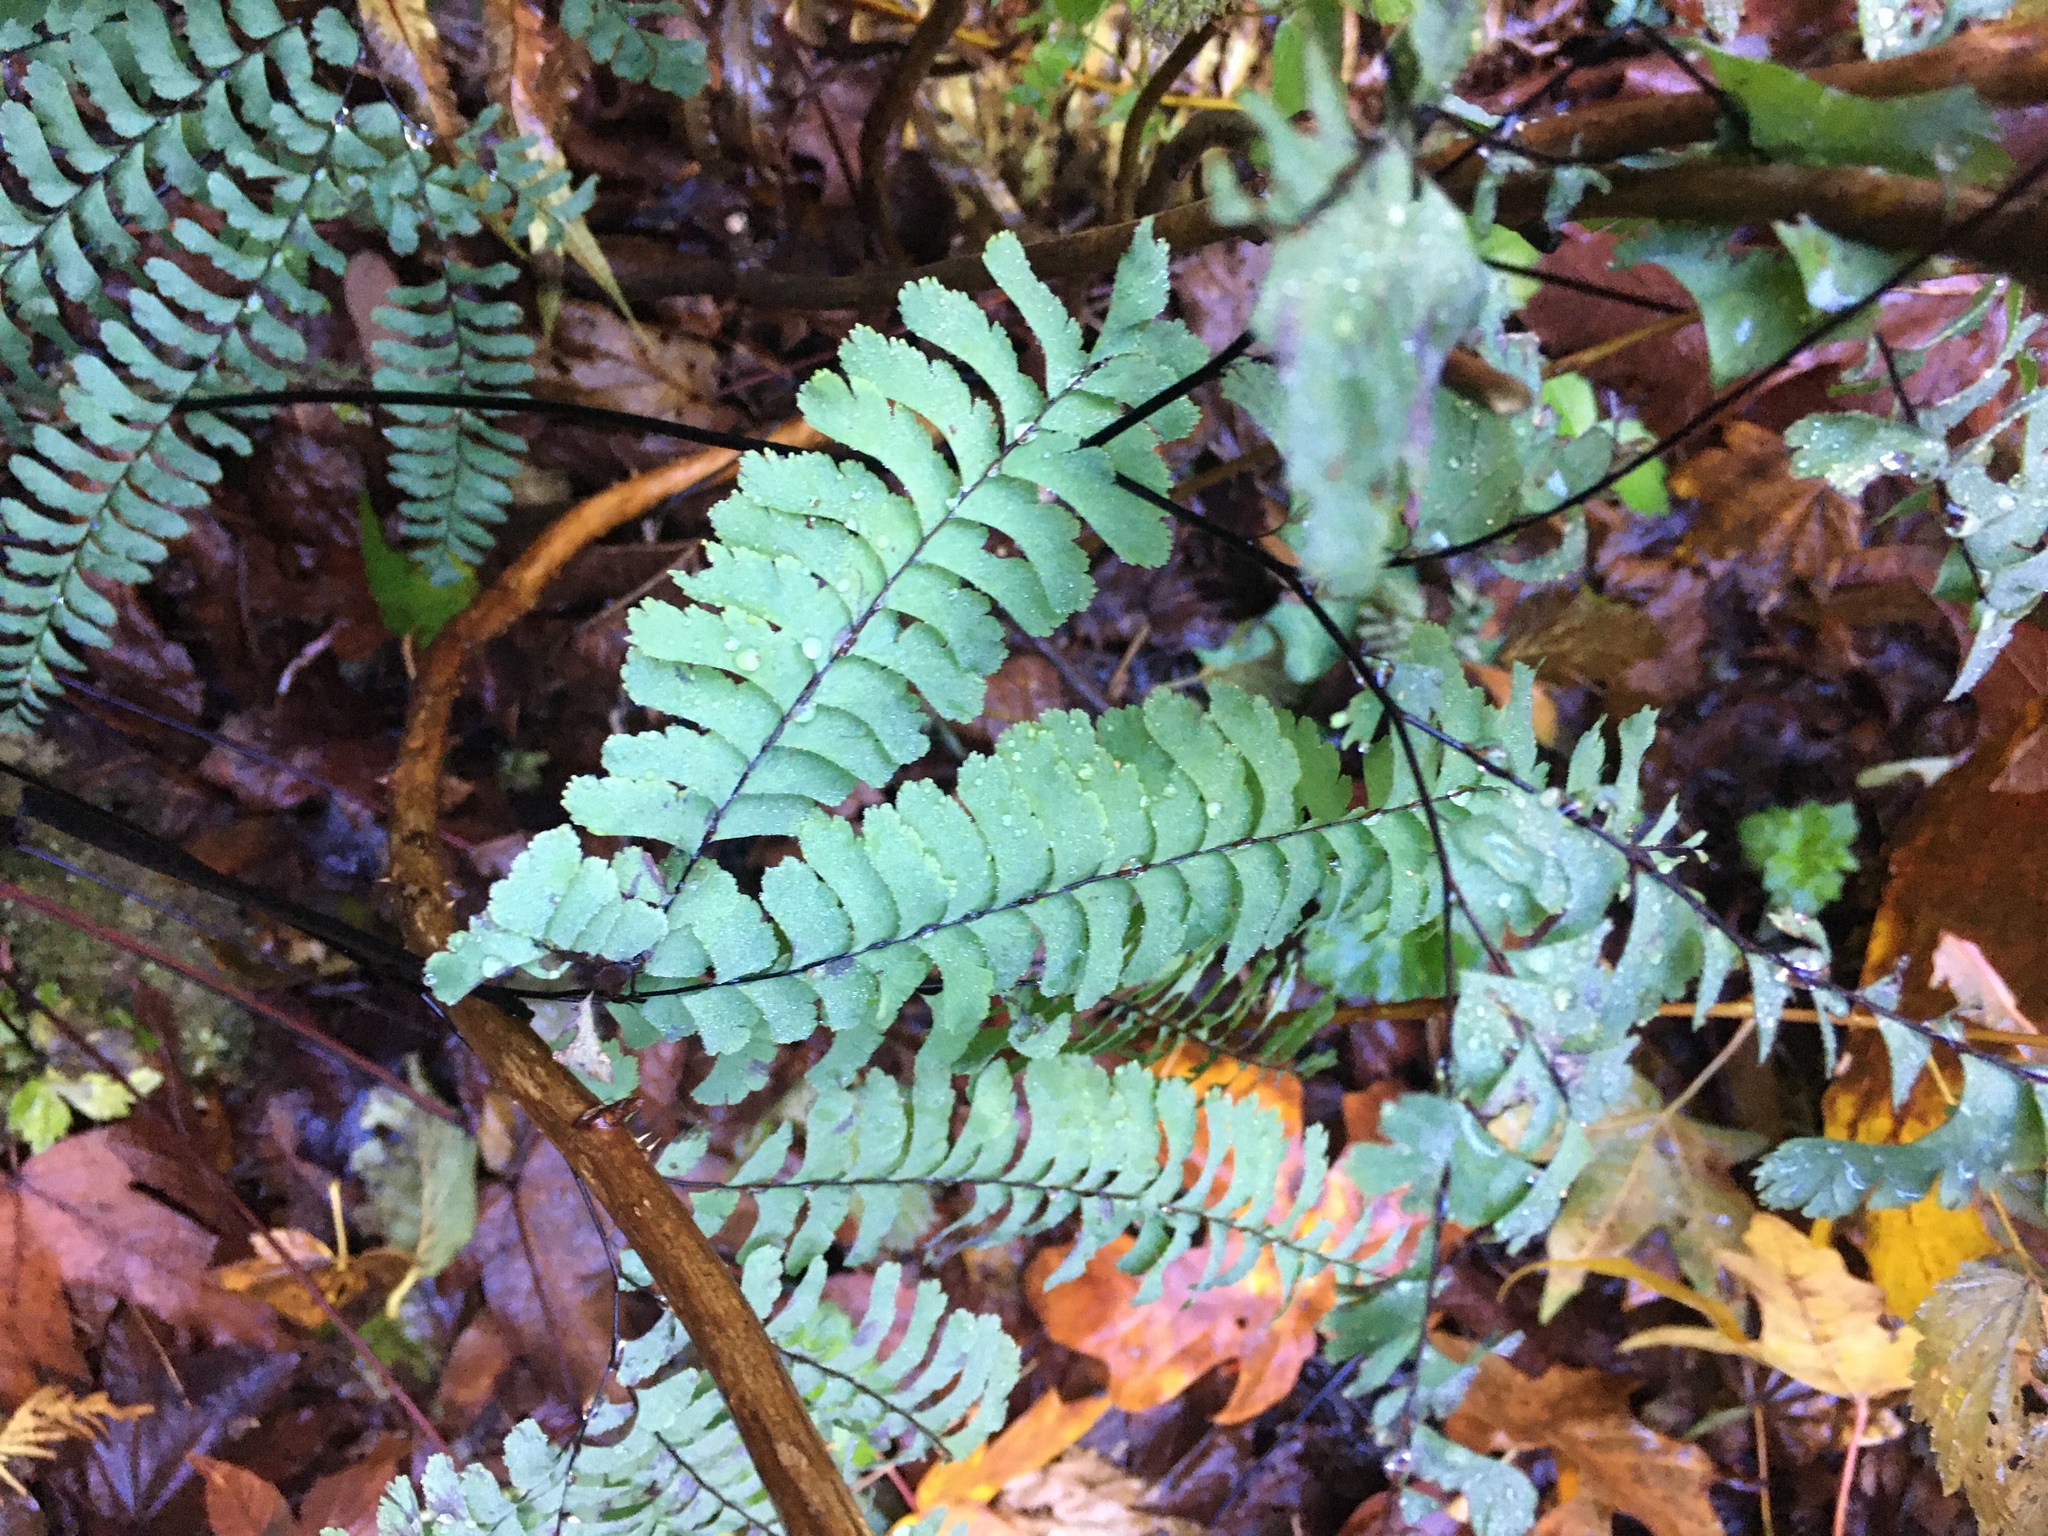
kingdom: Plantae
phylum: Tracheophyta
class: Polypodiopsida
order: Polypodiales
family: Pteridaceae
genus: Adiantum
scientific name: Adiantum aleuticum
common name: Aleutian maidenhair fern
